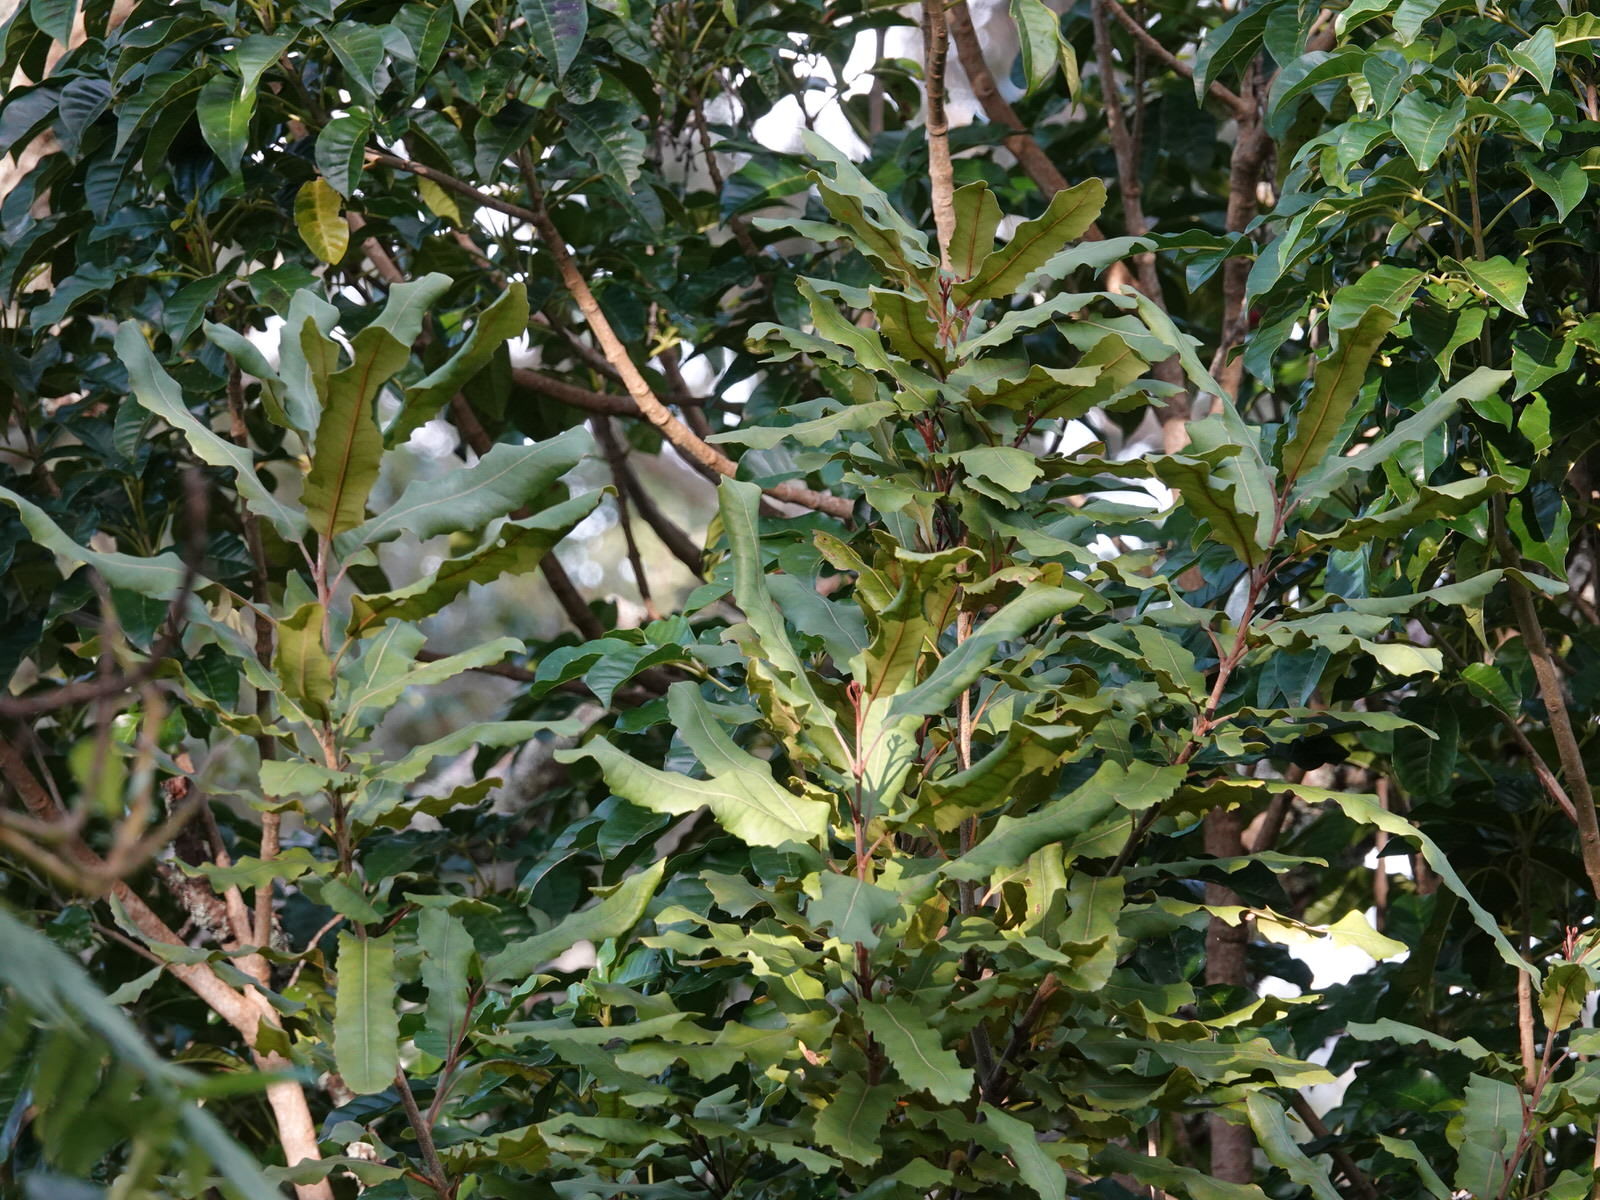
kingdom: Plantae
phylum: Tracheophyta
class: Magnoliopsida
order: Proteales
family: Proteaceae
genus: Knightia
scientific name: Knightia excelsa
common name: New zealand-honeysuckle
